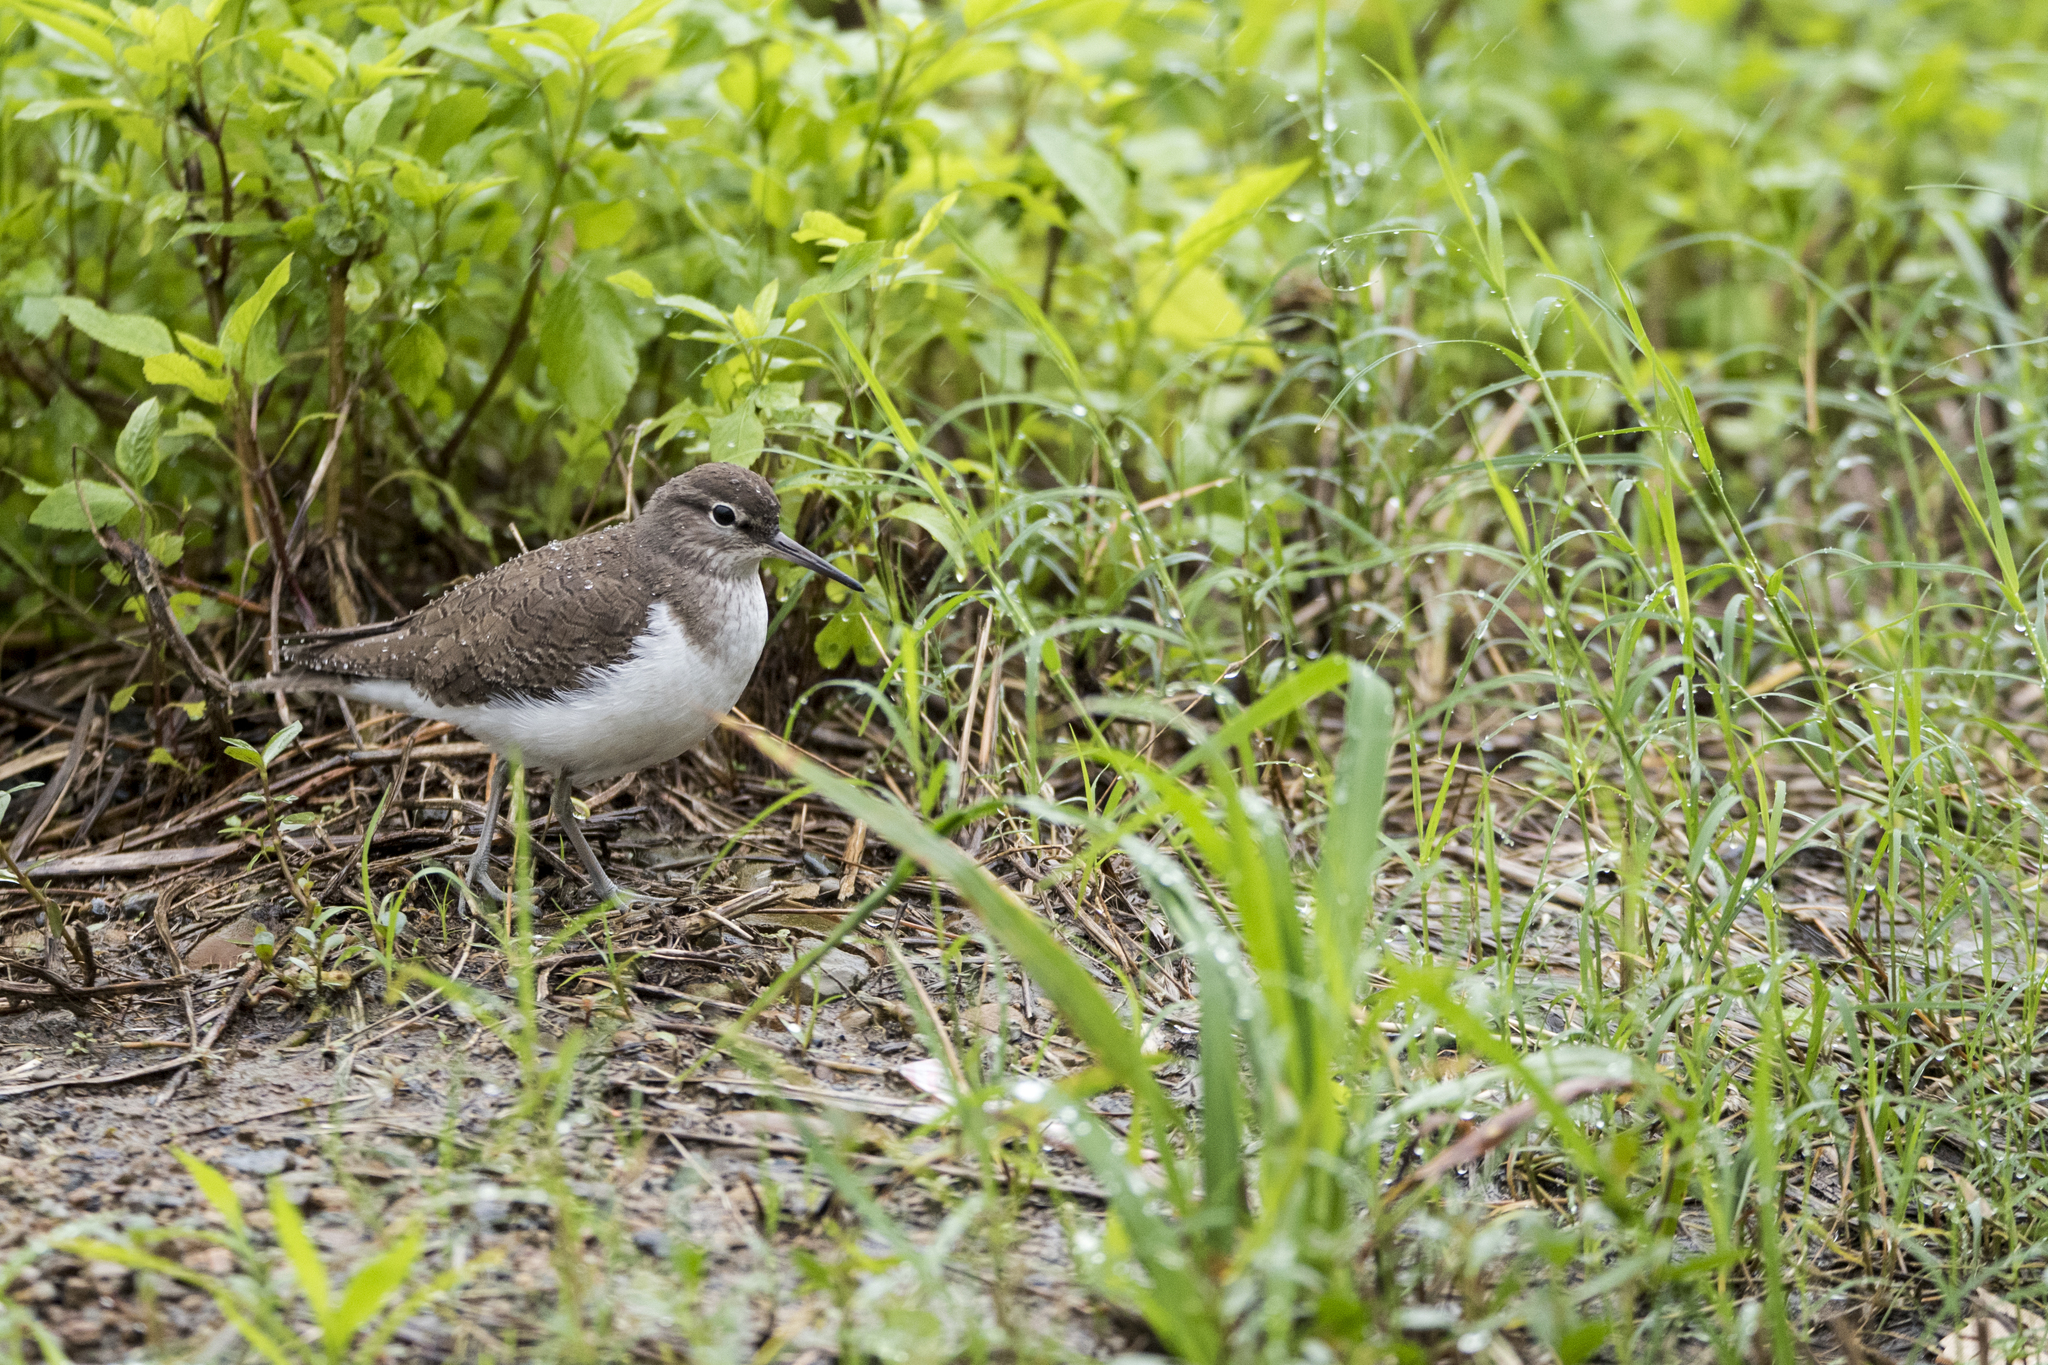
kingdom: Animalia
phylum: Chordata
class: Aves
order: Charadriiformes
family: Scolopacidae
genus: Actitis
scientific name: Actitis hypoleucos
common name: Common sandpiper
